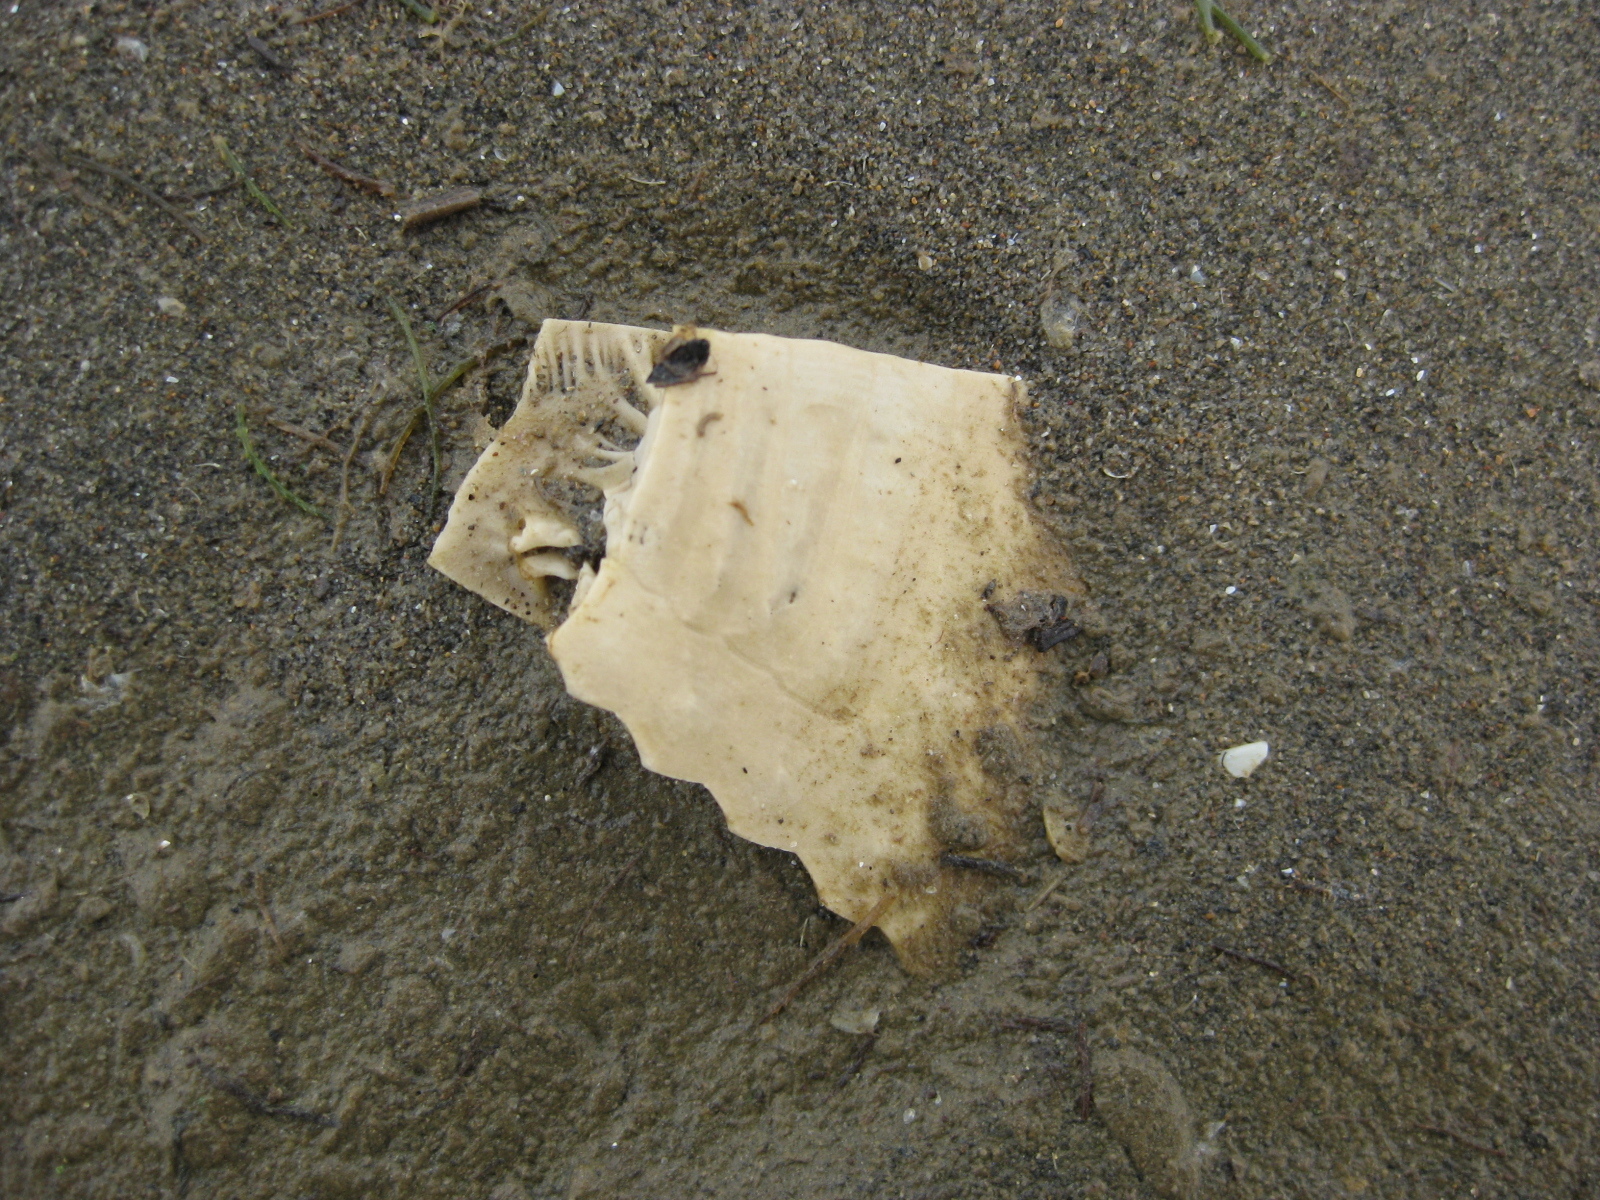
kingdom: Animalia
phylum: Echinodermata
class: Echinoidea
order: Clypeasteroida
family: Clypeasteridae
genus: Fellaster
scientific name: Fellaster zelandiae
